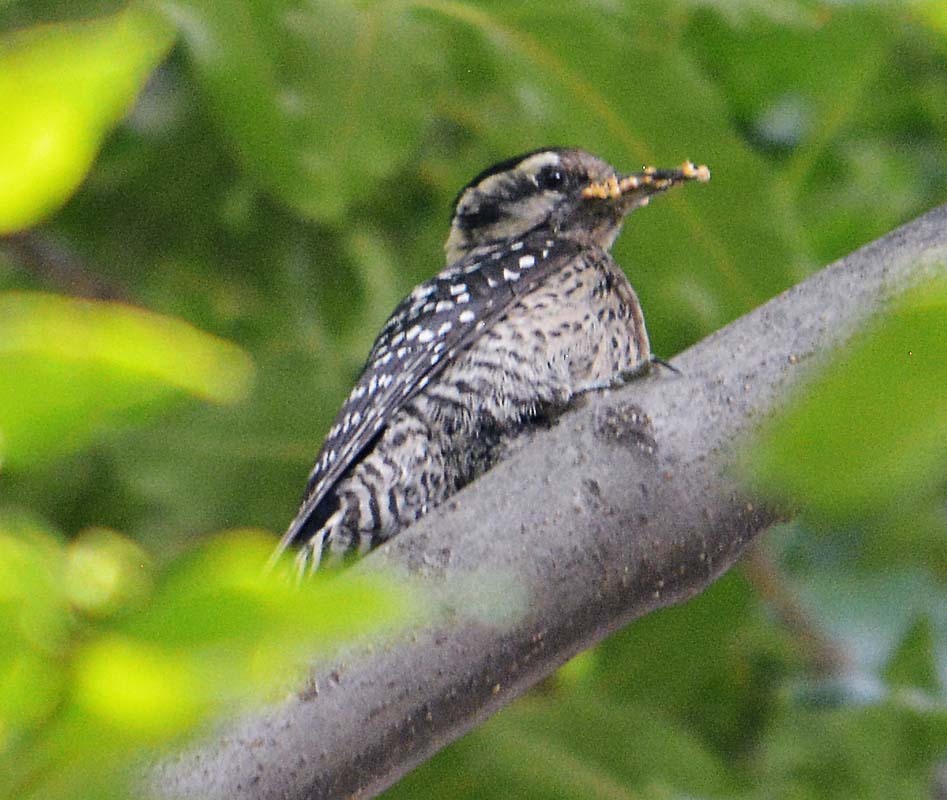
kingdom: Animalia
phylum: Chordata
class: Aves
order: Piciformes
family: Picidae
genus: Dryobates
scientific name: Dryobates scalaris
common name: Ladder-backed woodpecker
